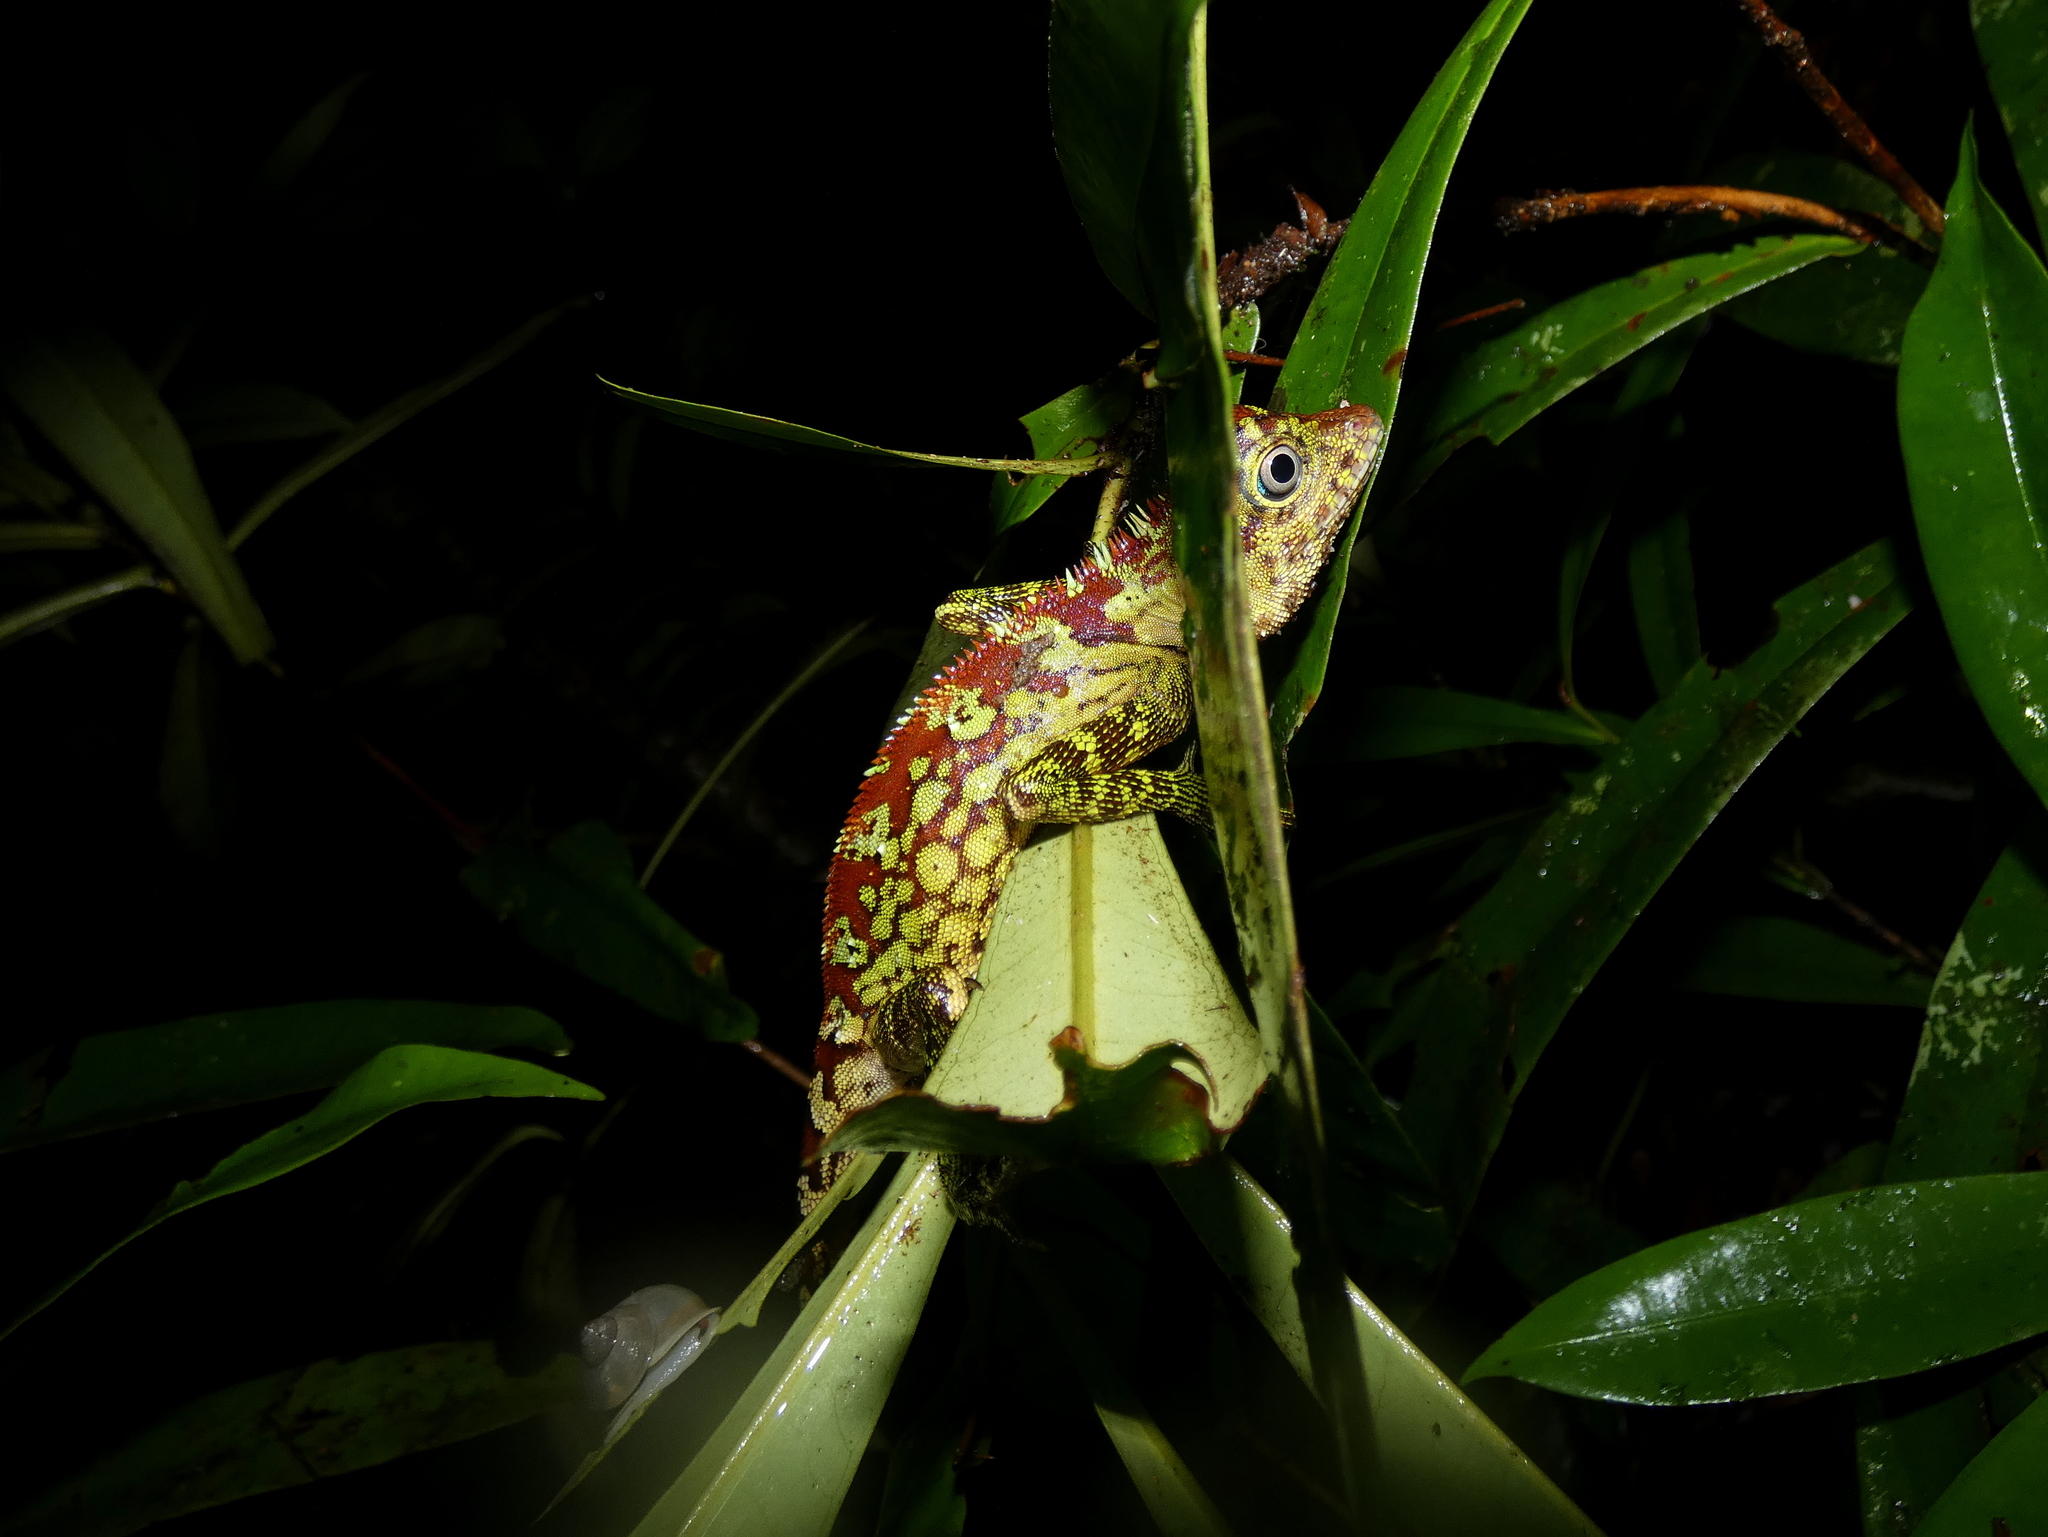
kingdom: Animalia
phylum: Chordata
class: Squamata
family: Agamidae
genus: Gonocephalus
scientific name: Gonocephalus bornensis
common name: Borneo forest dragon
